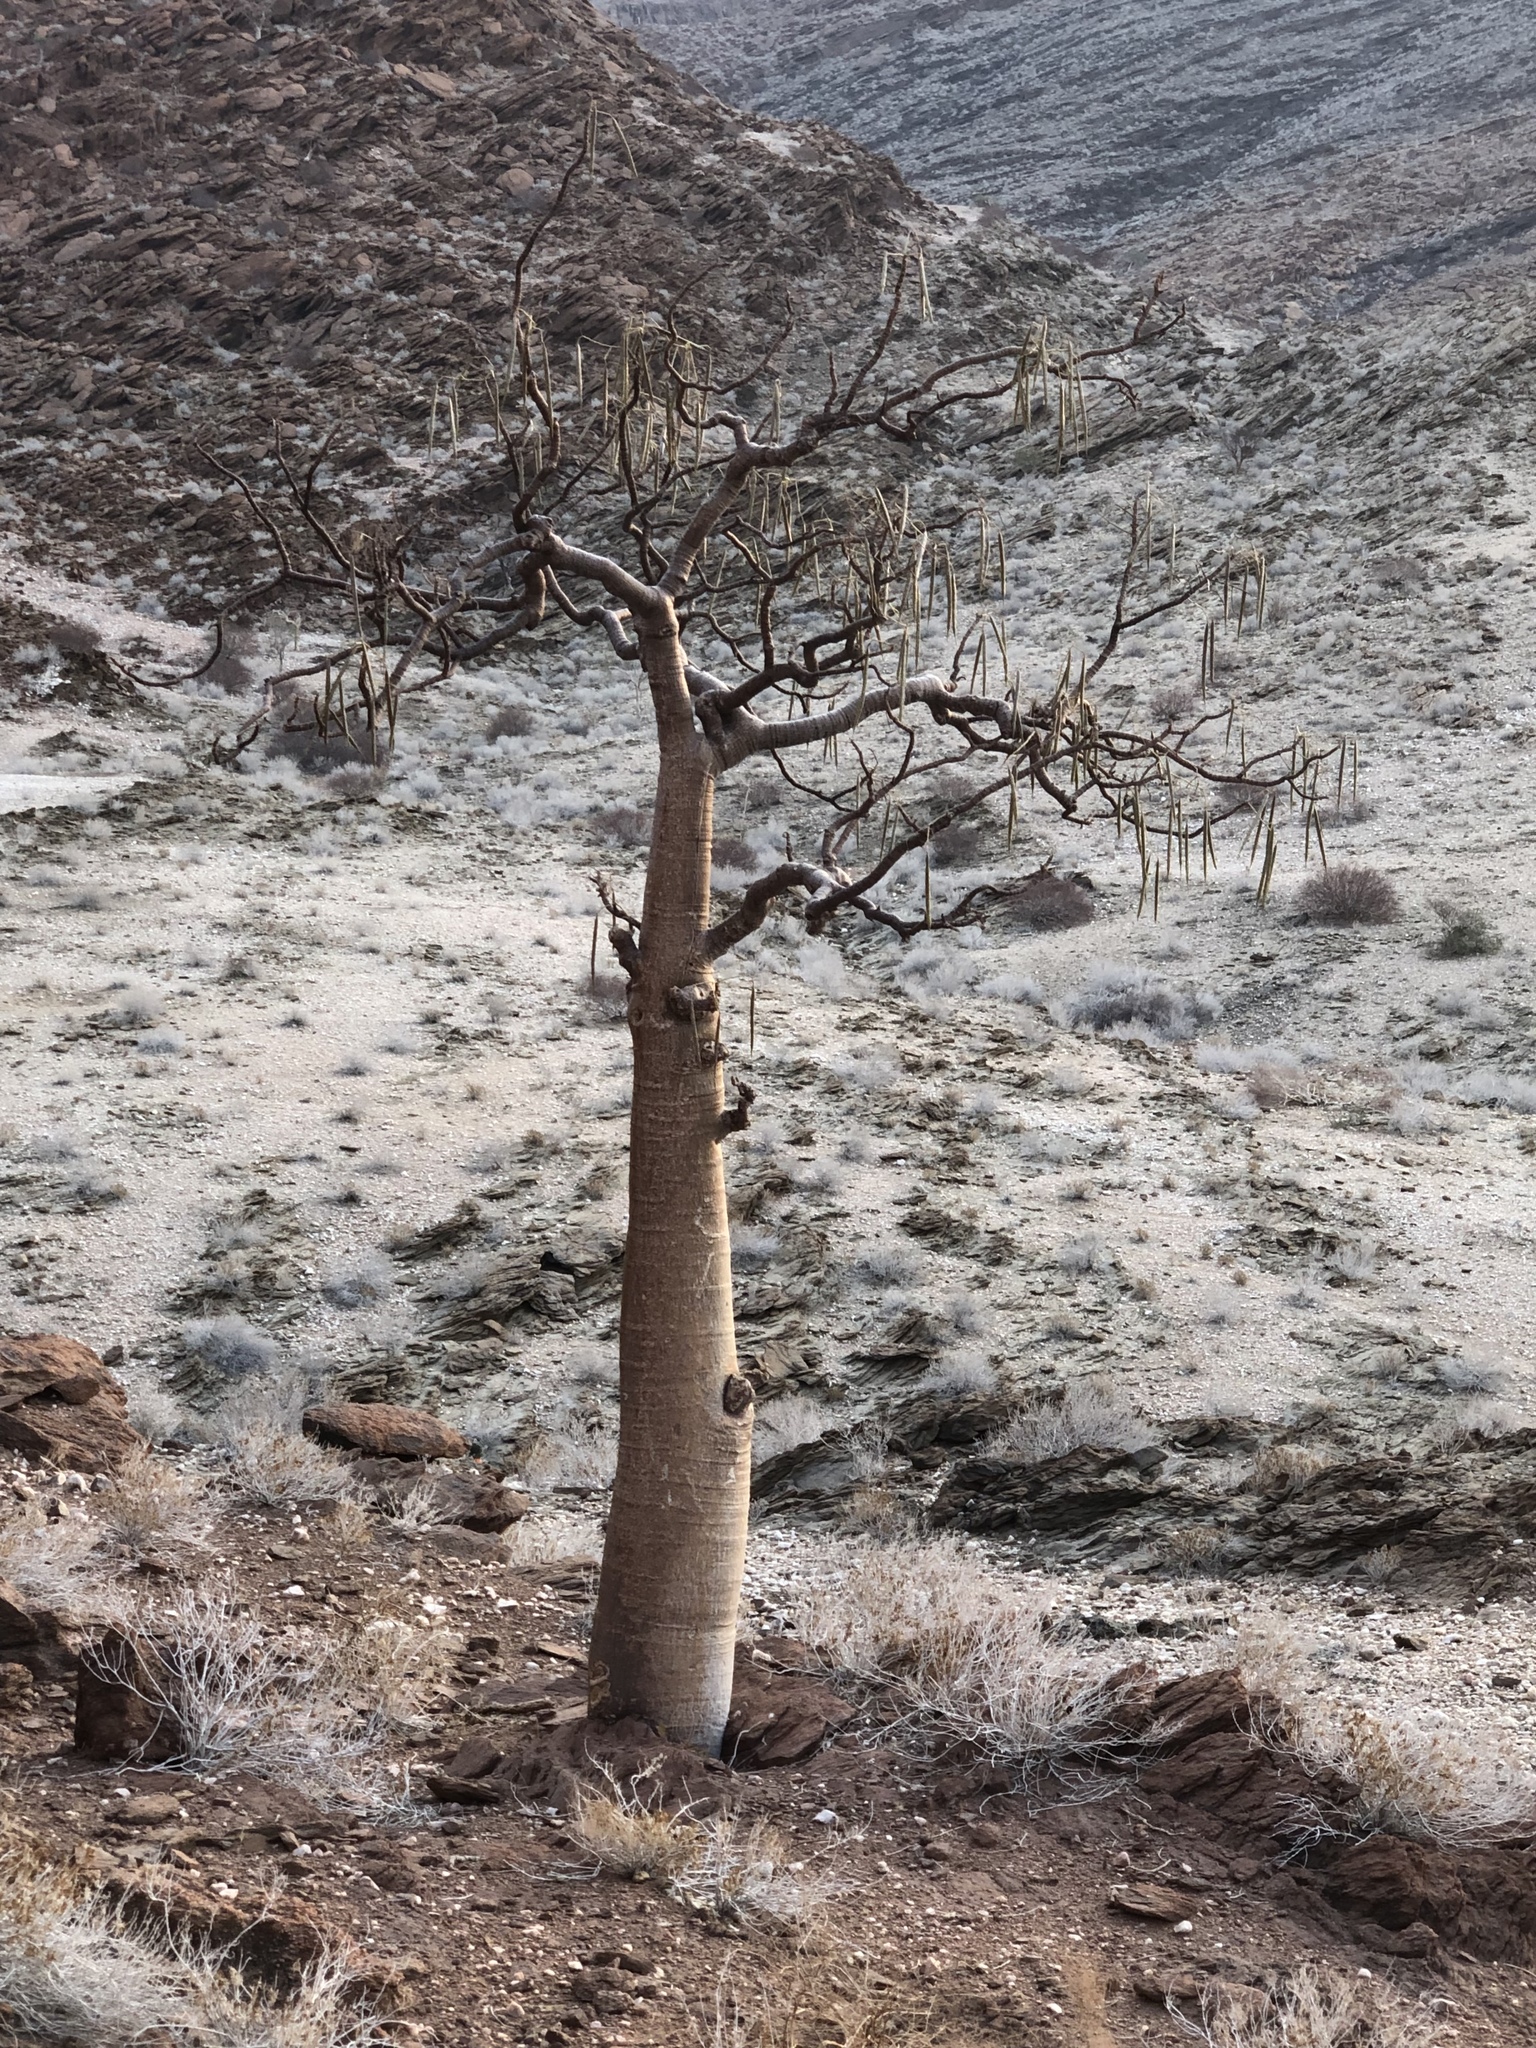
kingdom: Plantae
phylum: Tracheophyta
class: Magnoliopsida
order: Brassicales
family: Moringaceae
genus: Moringa
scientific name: Moringa ovalifolia
